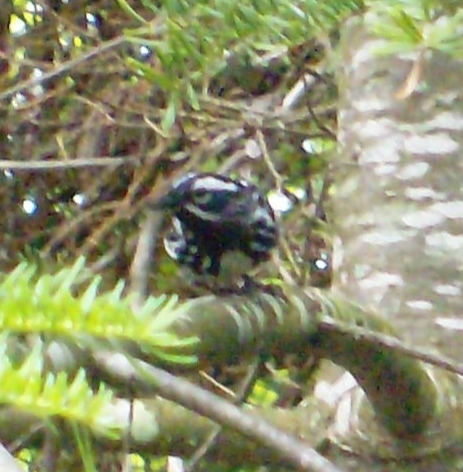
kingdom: Animalia
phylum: Chordata
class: Aves
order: Passeriformes
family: Parulidae
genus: Mniotilta
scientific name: Mniotilta varia
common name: Black-and-white warbler
